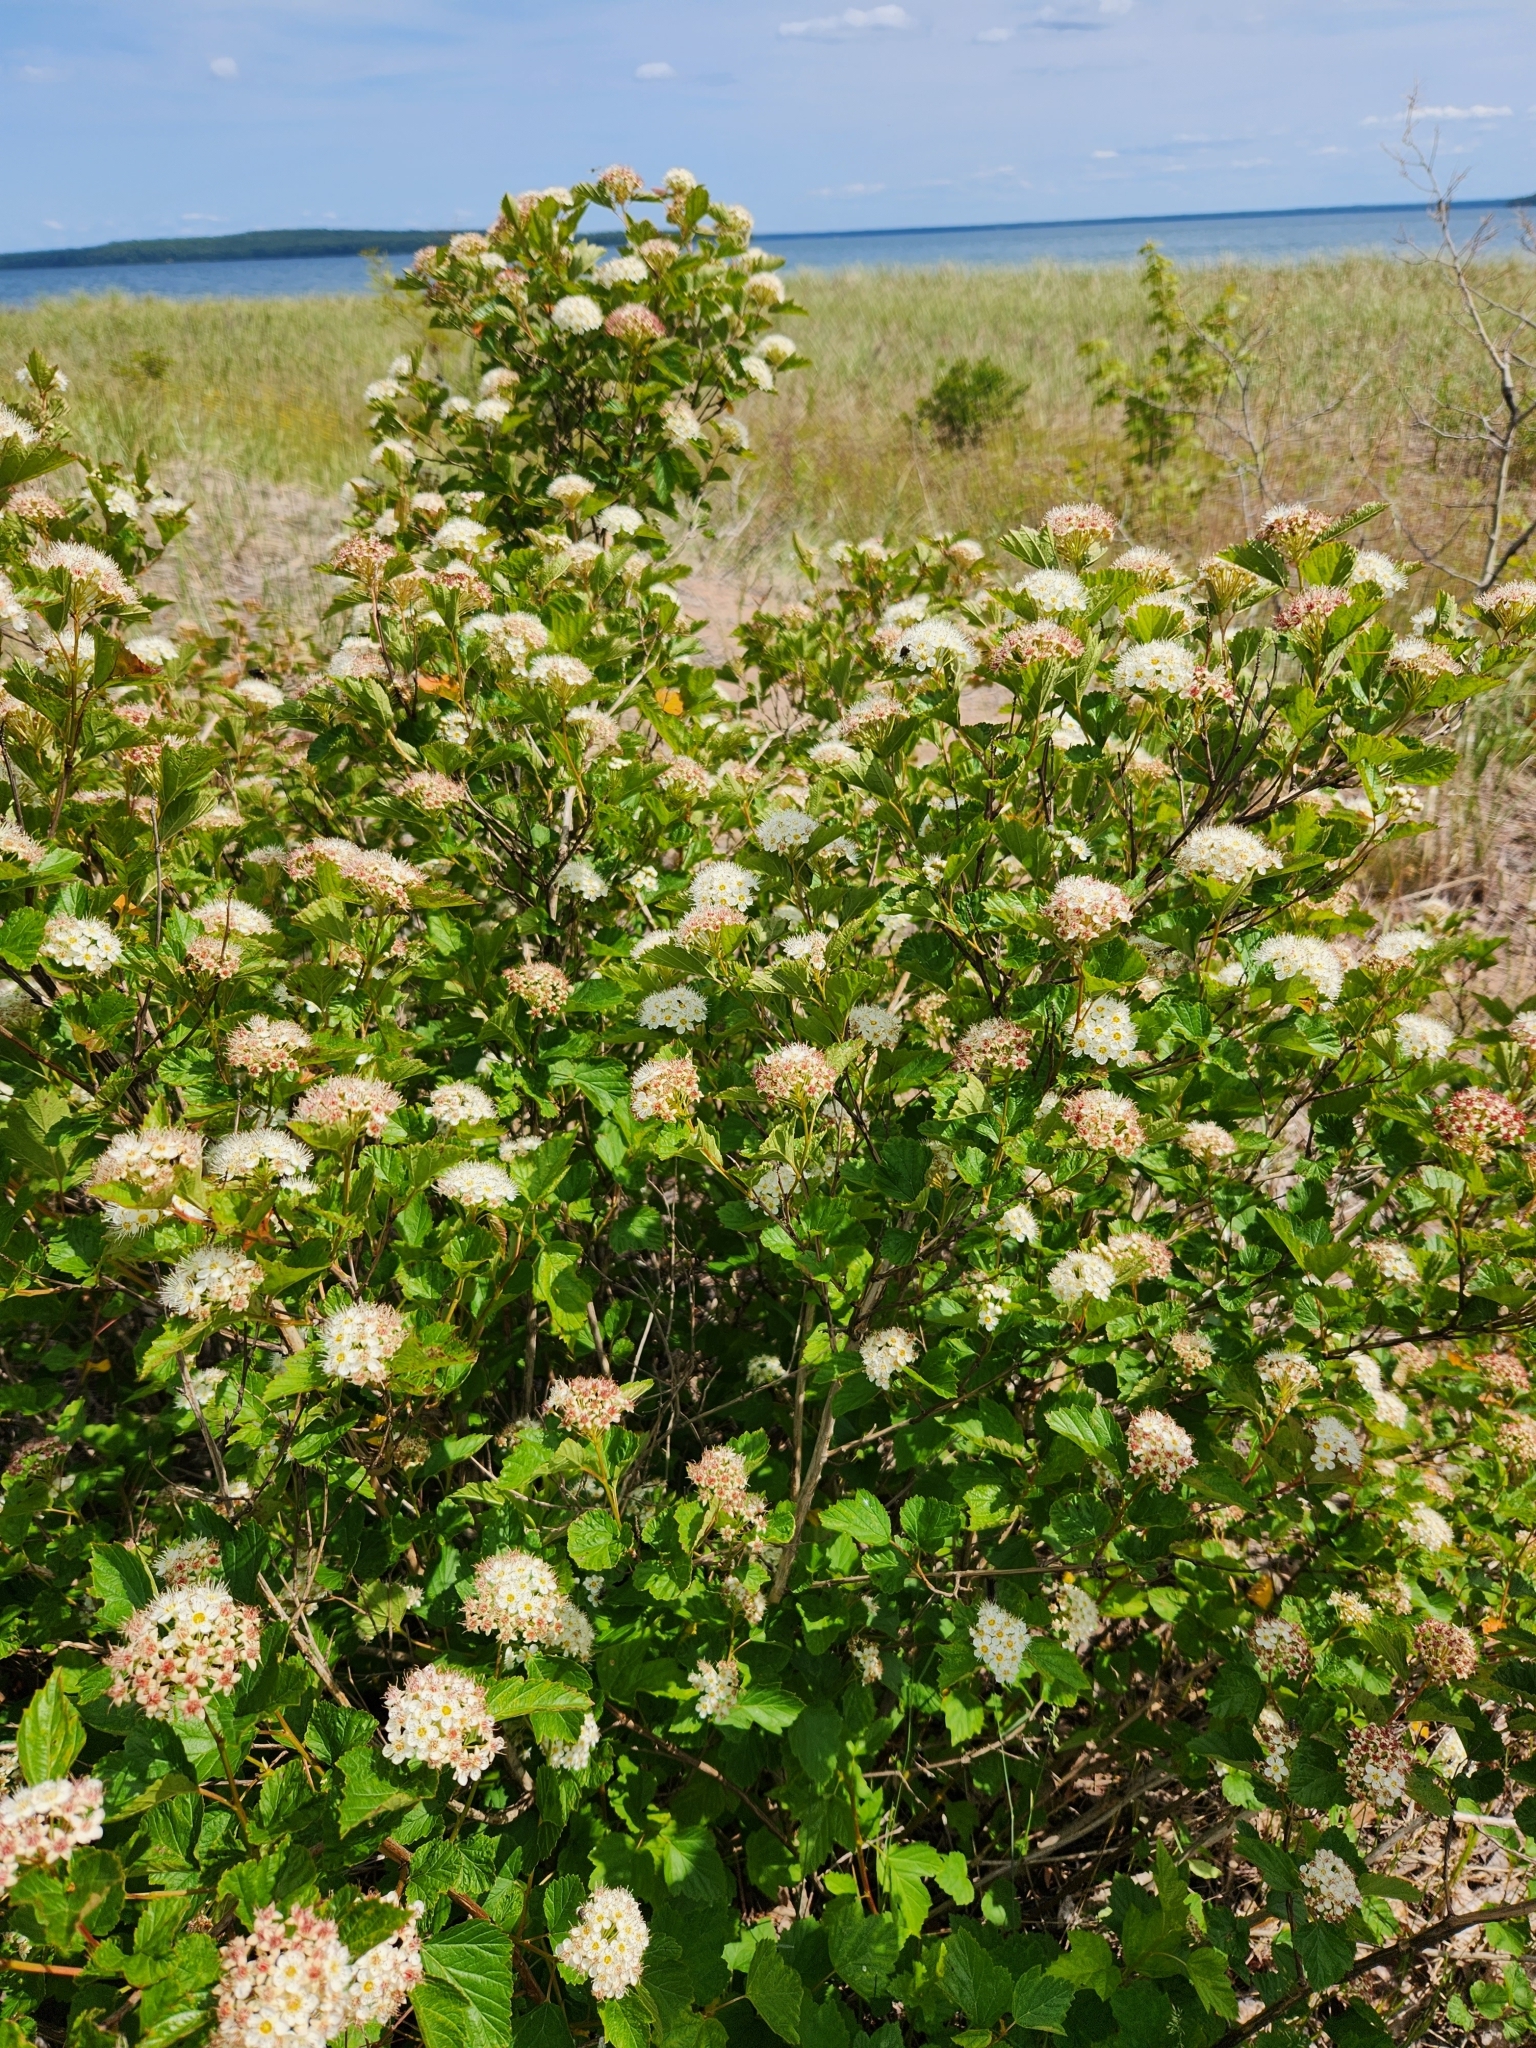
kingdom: Plantae
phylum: Tracheophyta
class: Magnoliopsida
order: Rosales
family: Rosaceae
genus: Physocarpus
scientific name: Physocarpus opulifolius
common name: Ninebark
